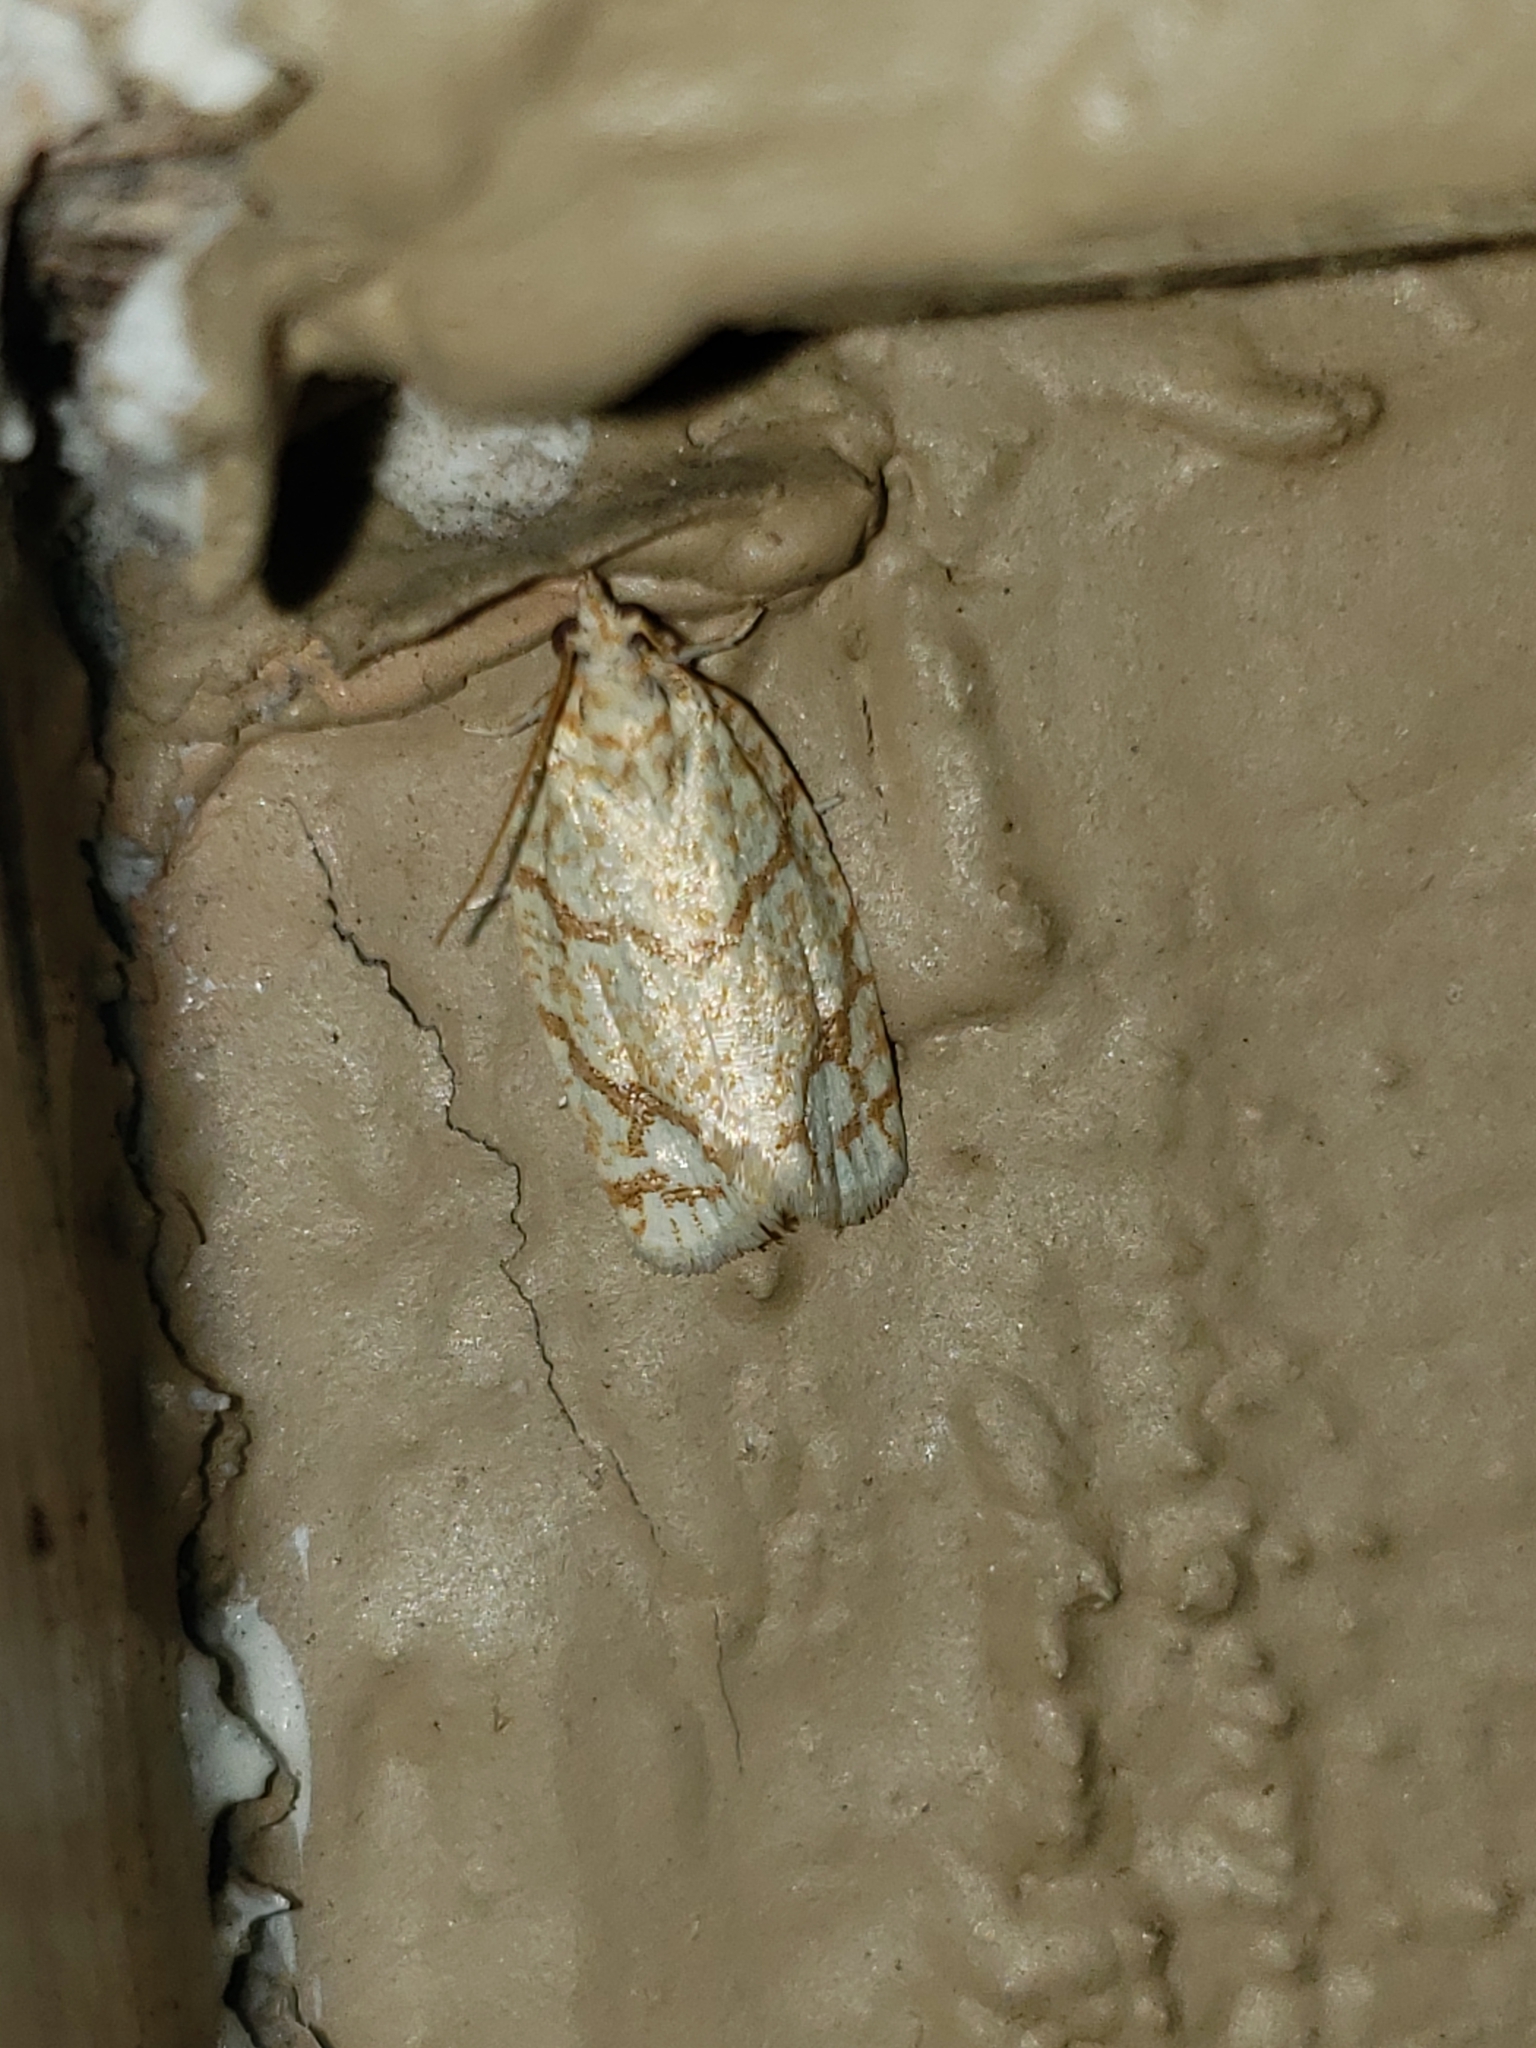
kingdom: Animalia
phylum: Arthropoda
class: Insecta
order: Lepidoptera
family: Tortricidae
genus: Argyrotaenia
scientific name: Argyrotaenia quercifoliana
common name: Yellow-winged oak leafroller moth
